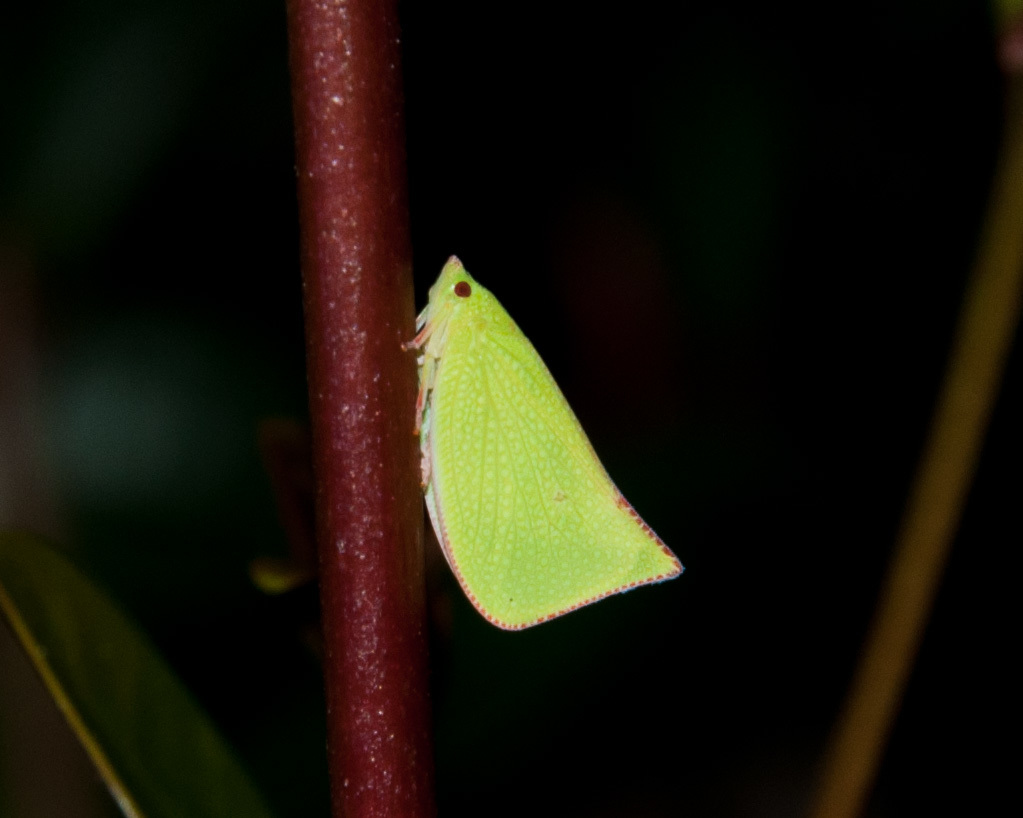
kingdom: Animalia
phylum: Arthropoda
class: Insecta
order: Hemiptera
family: Flatidae
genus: Siphanta
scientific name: Siphanta acuta
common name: Torpedo bug
